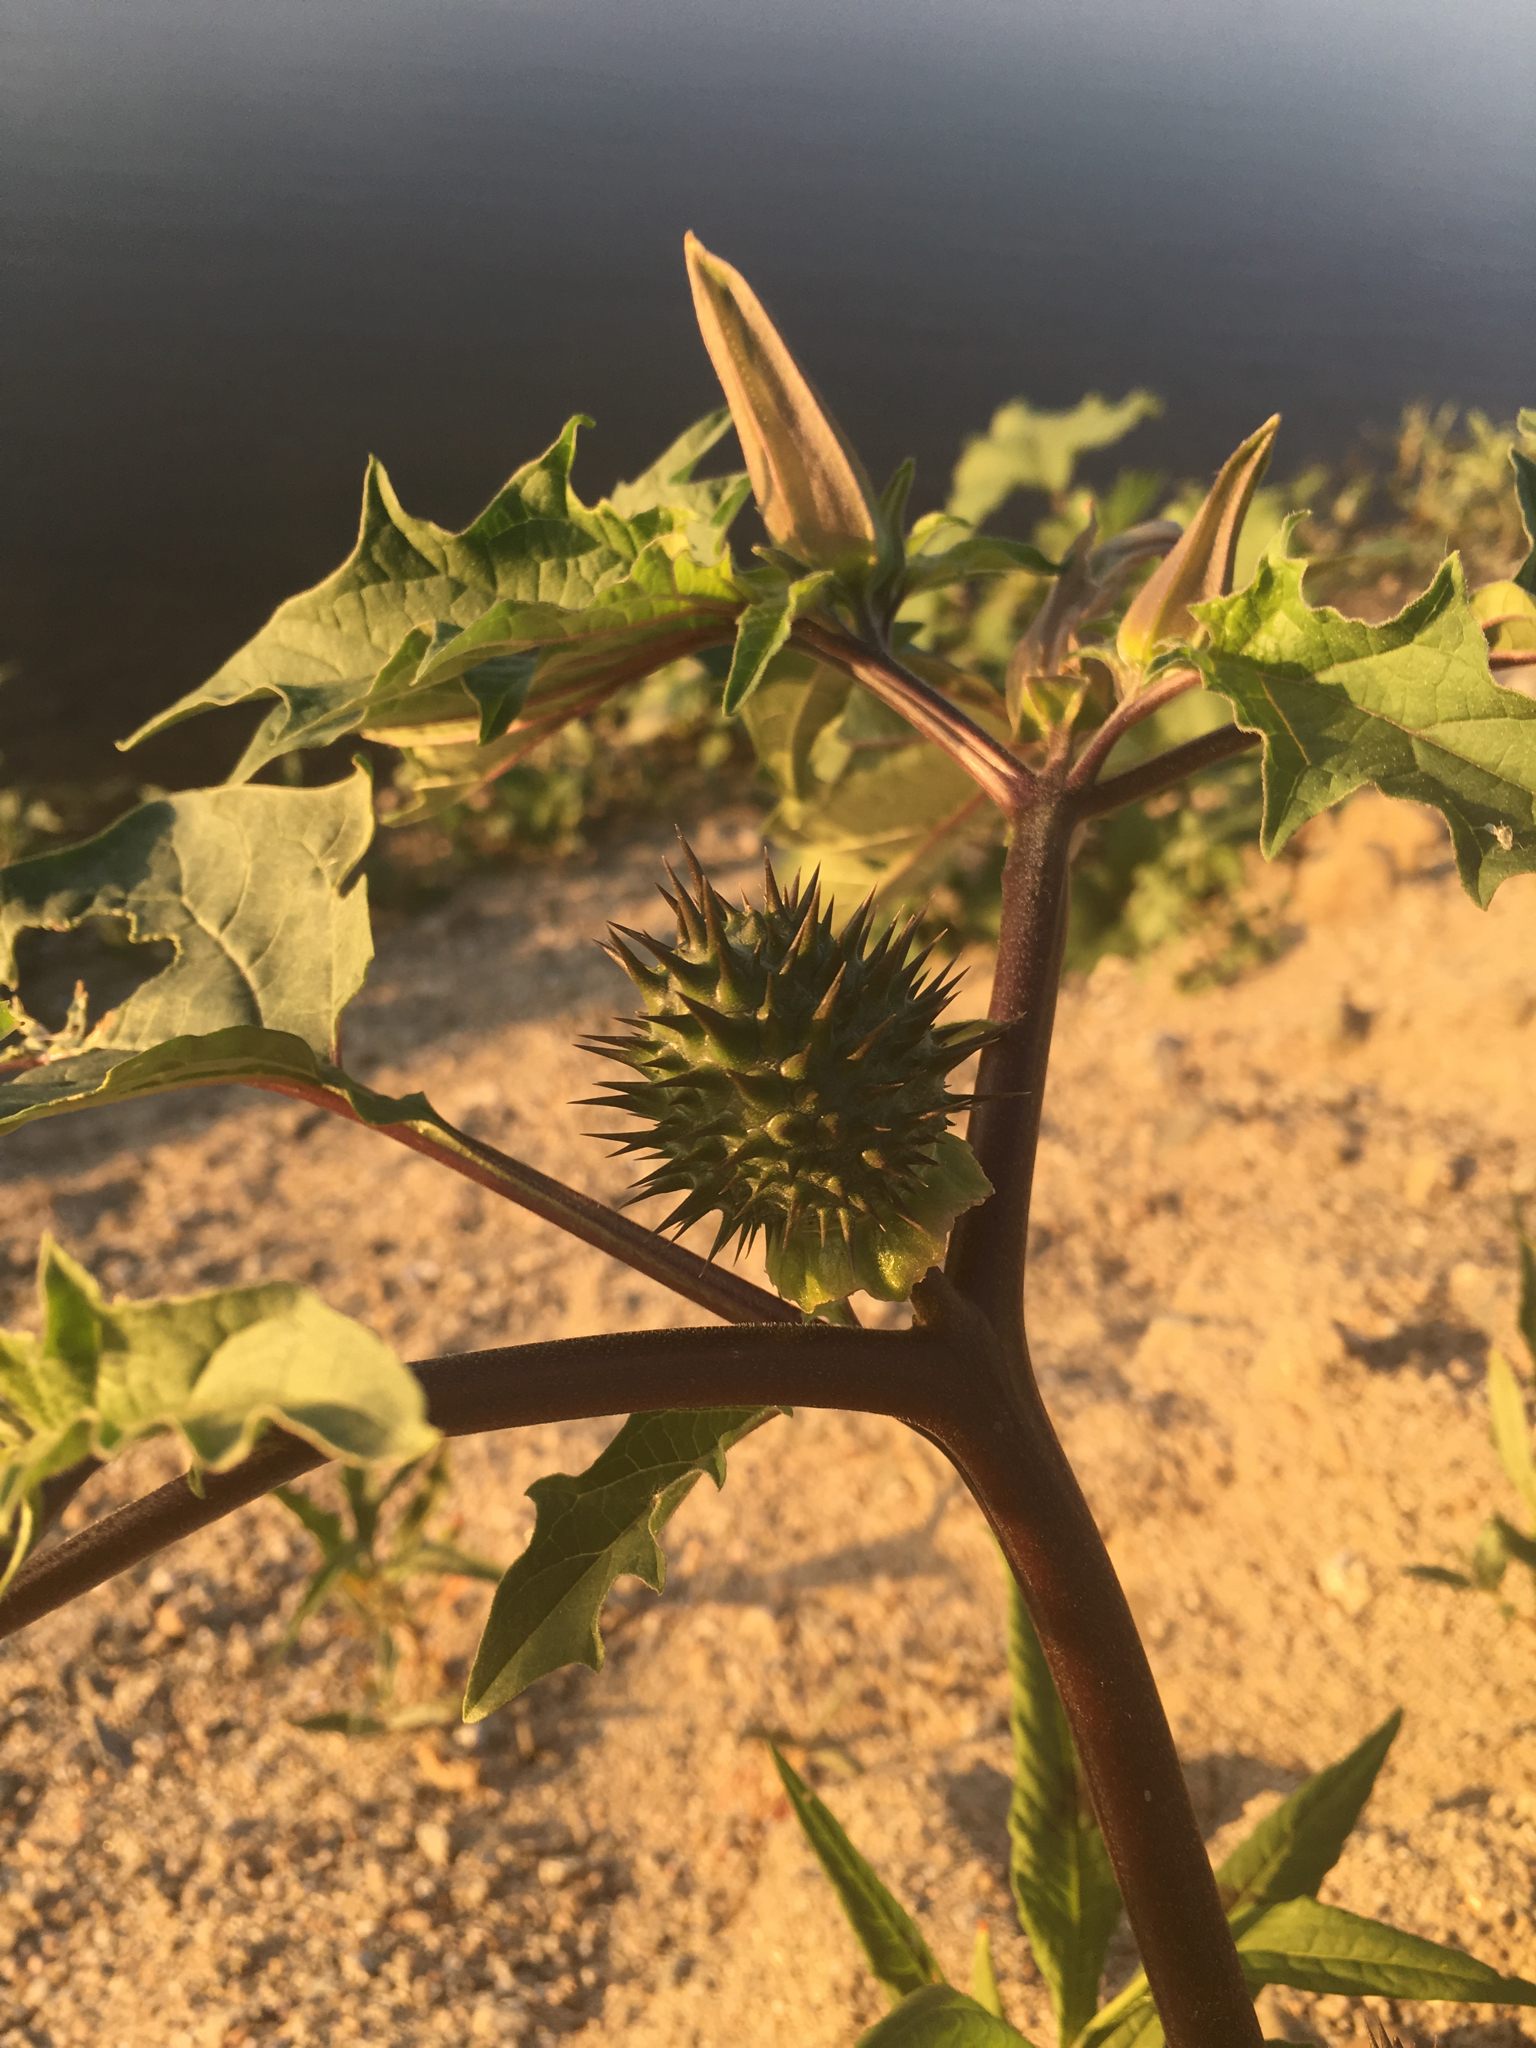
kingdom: Plantae
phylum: Tracheophyta
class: Magnoliopsida
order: Solanales
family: Solanaceae
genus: Datura
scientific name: Datura stramonium
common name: Thorn-apple
